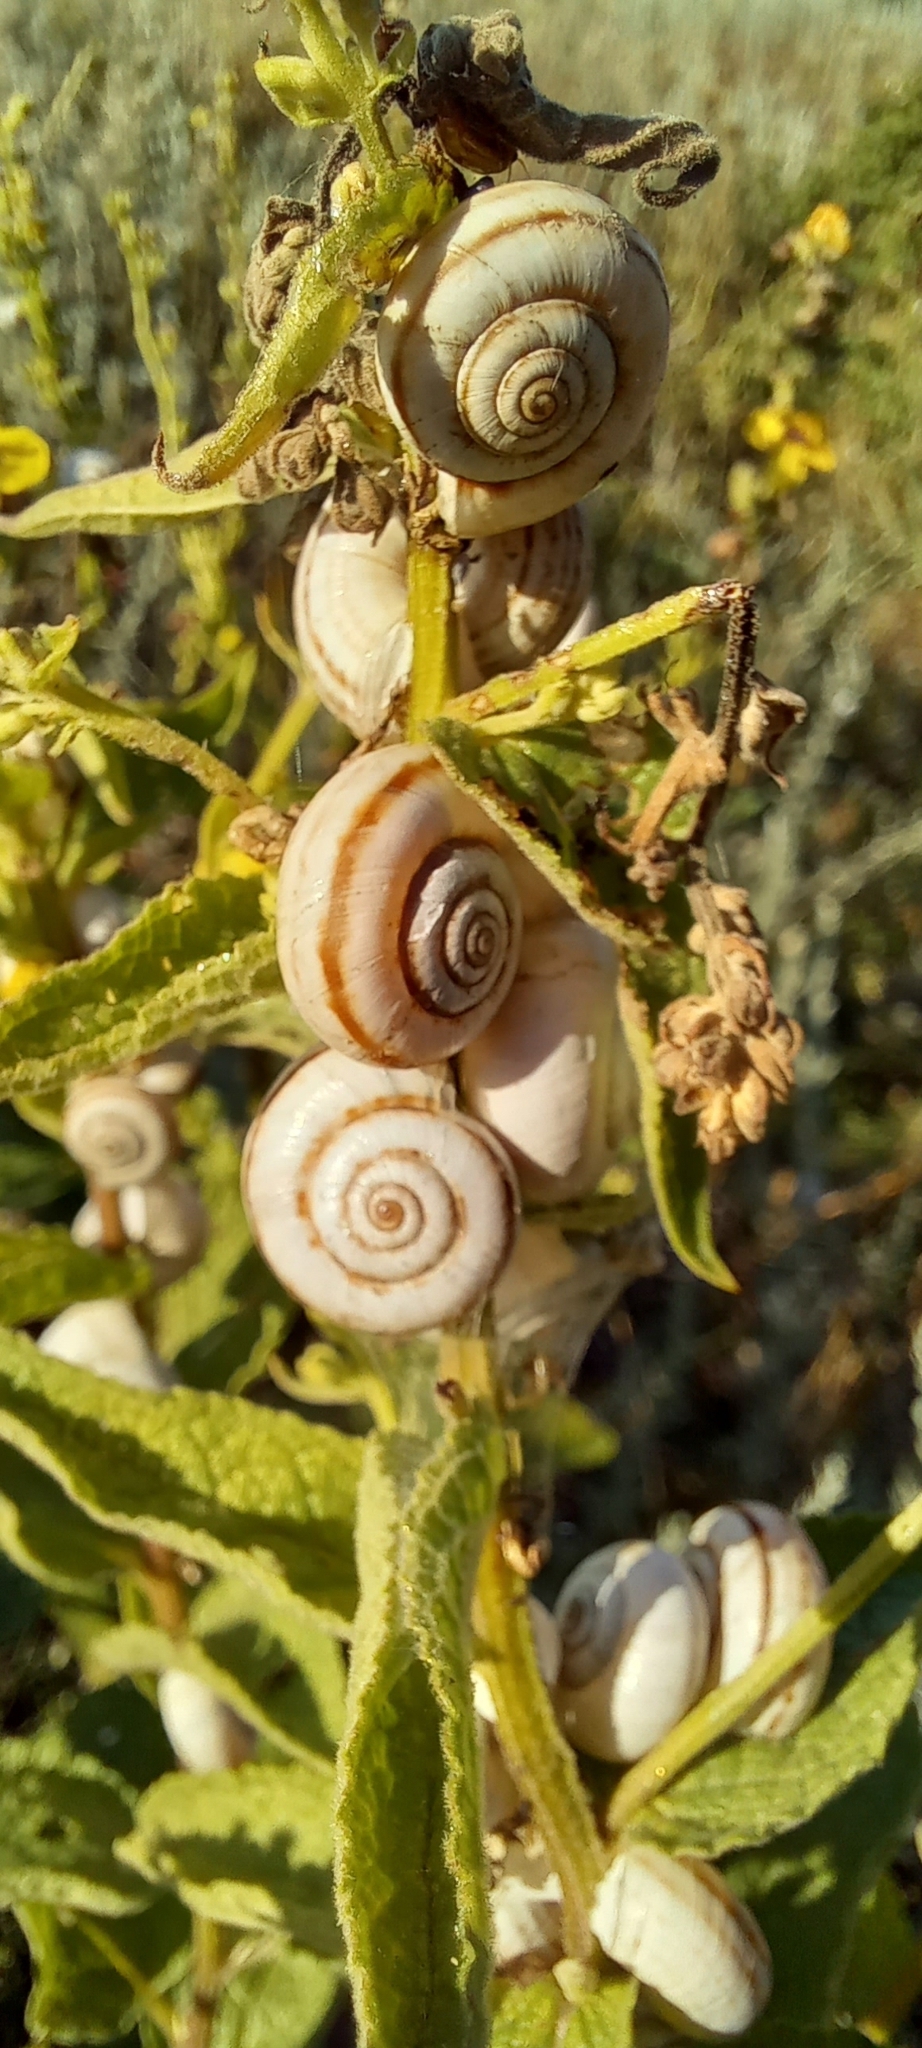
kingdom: Animalia
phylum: Mollusca
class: Gastropoda
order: Stylommatophora
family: Geomitridae
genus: Xeropicta
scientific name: Xeropicta derbentina
